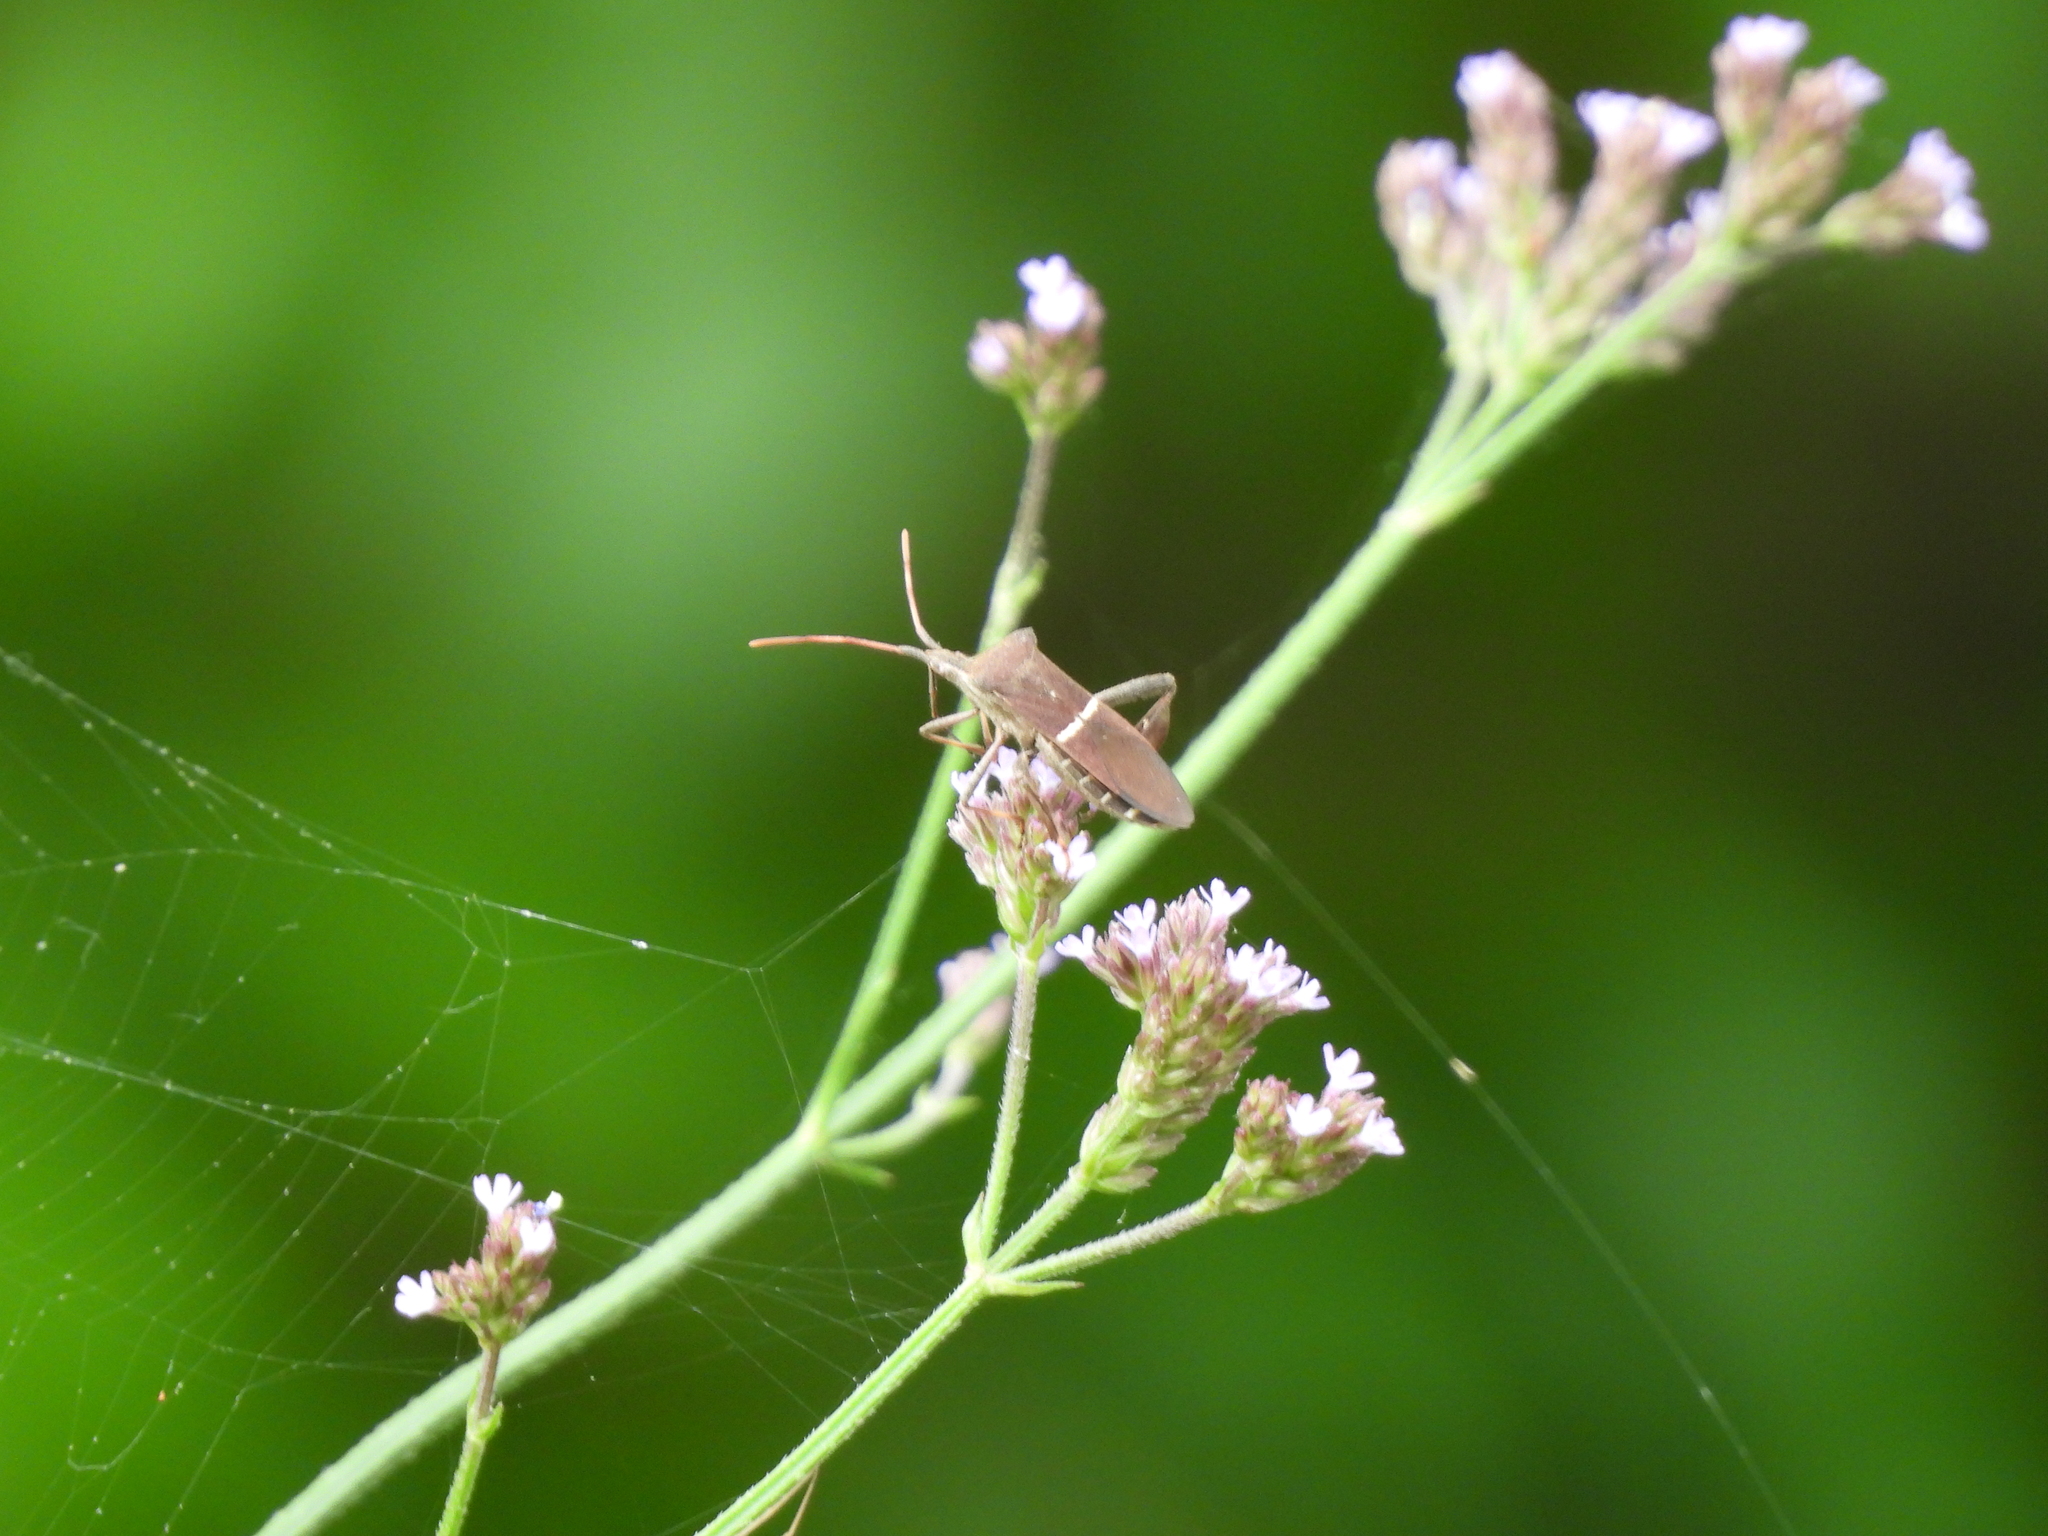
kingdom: Animalia
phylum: Arthropoda
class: Insecta
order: Hemiptera
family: Coreidae
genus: Leptoglossus
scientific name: Leptoglossus phyllopus
